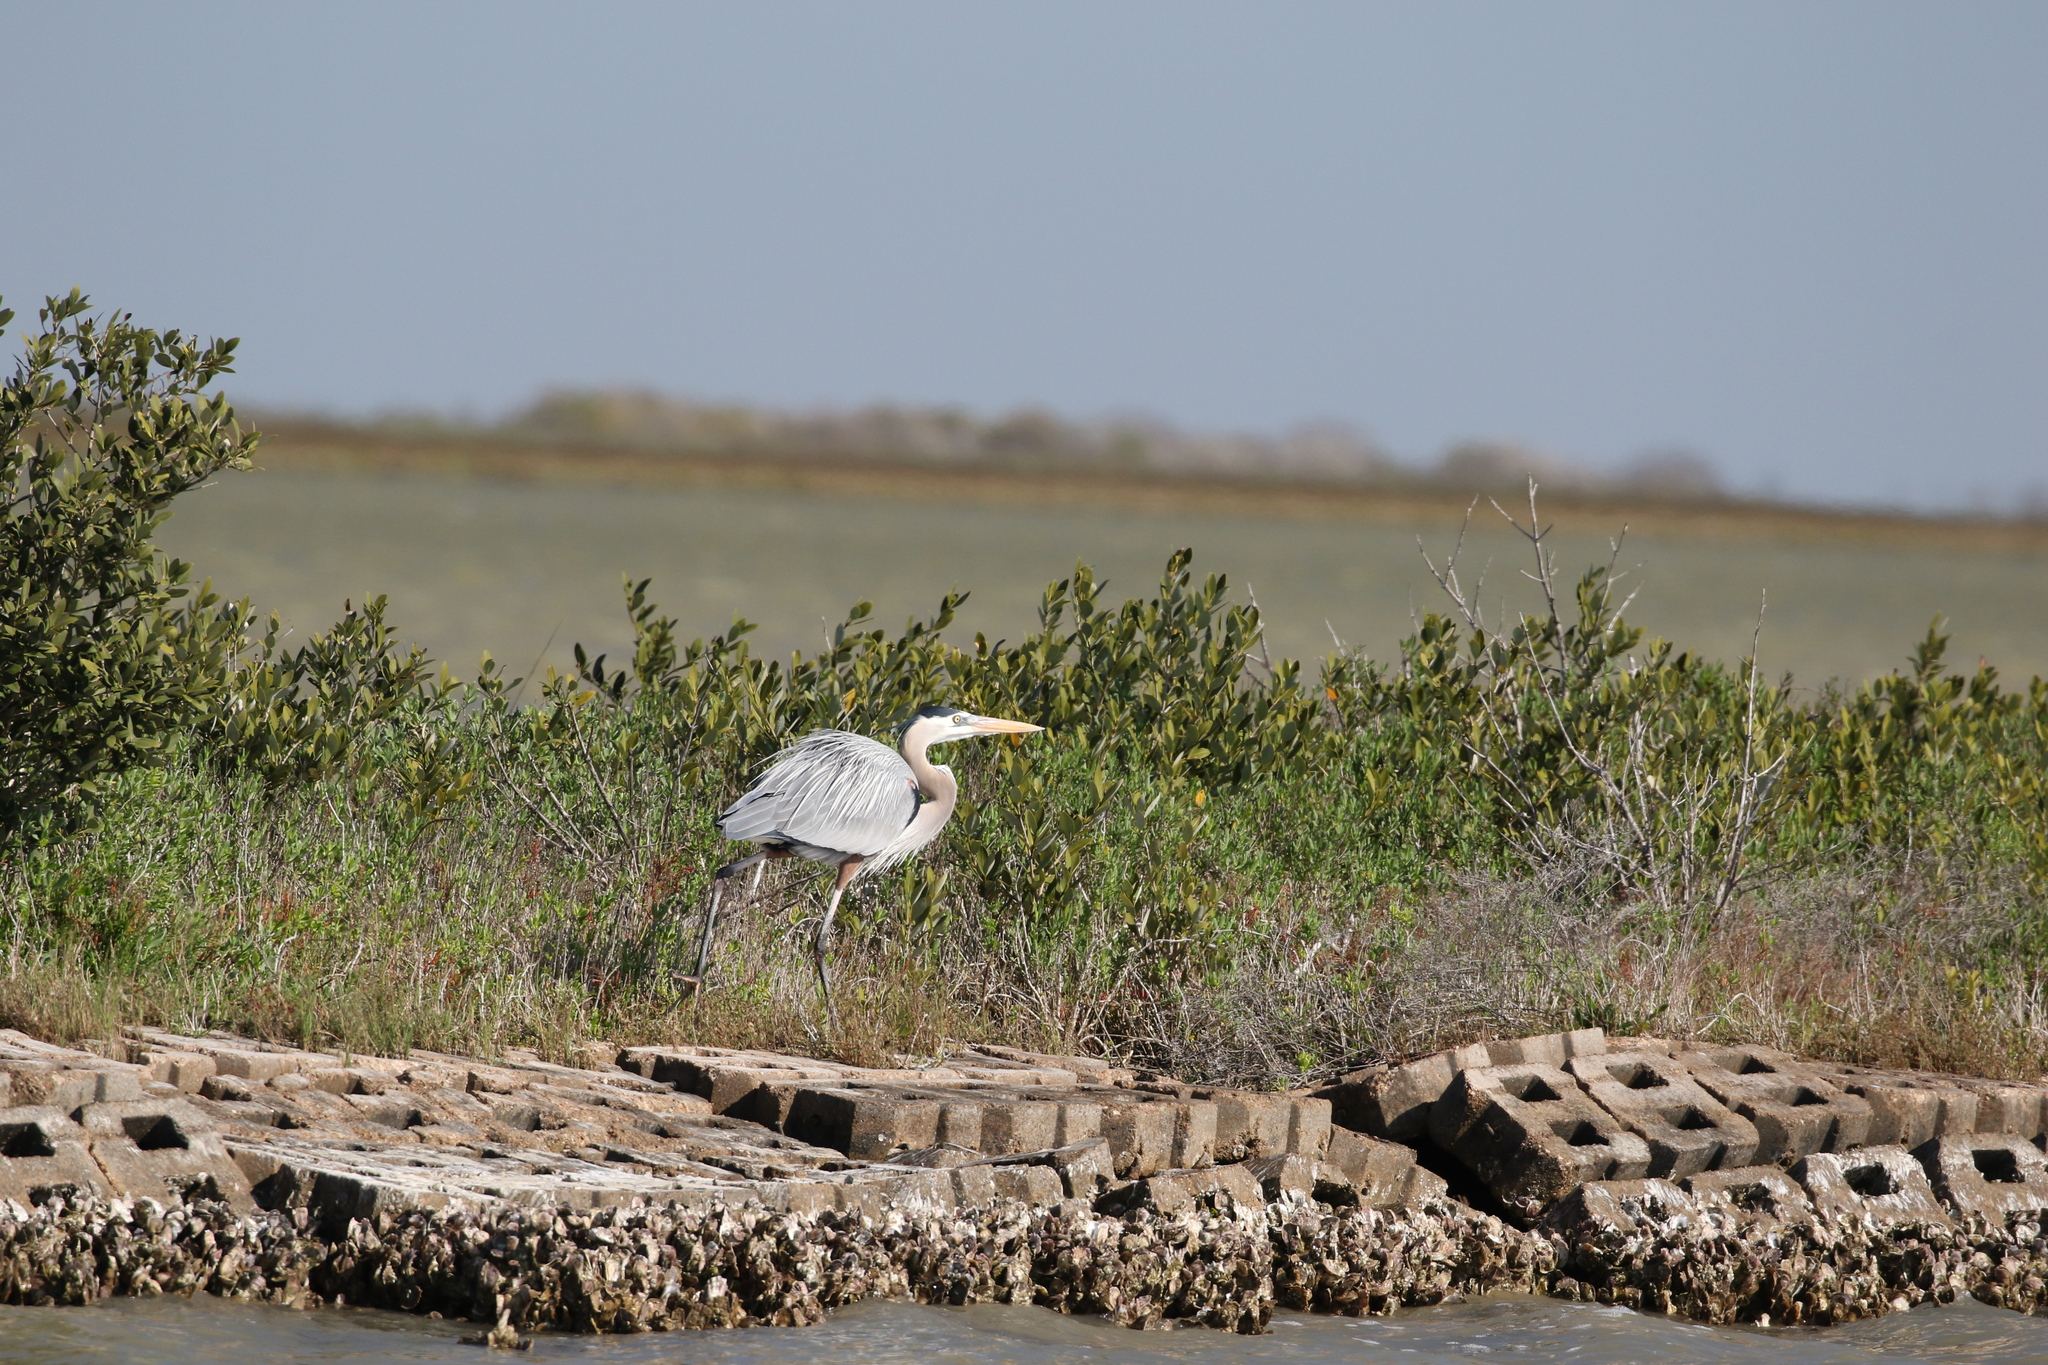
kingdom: Animalia
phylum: Chordata
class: Aves
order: Pelecaniformes
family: Ardeidae
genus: Ardea
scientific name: Ardea herodias
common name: Great blue heron
